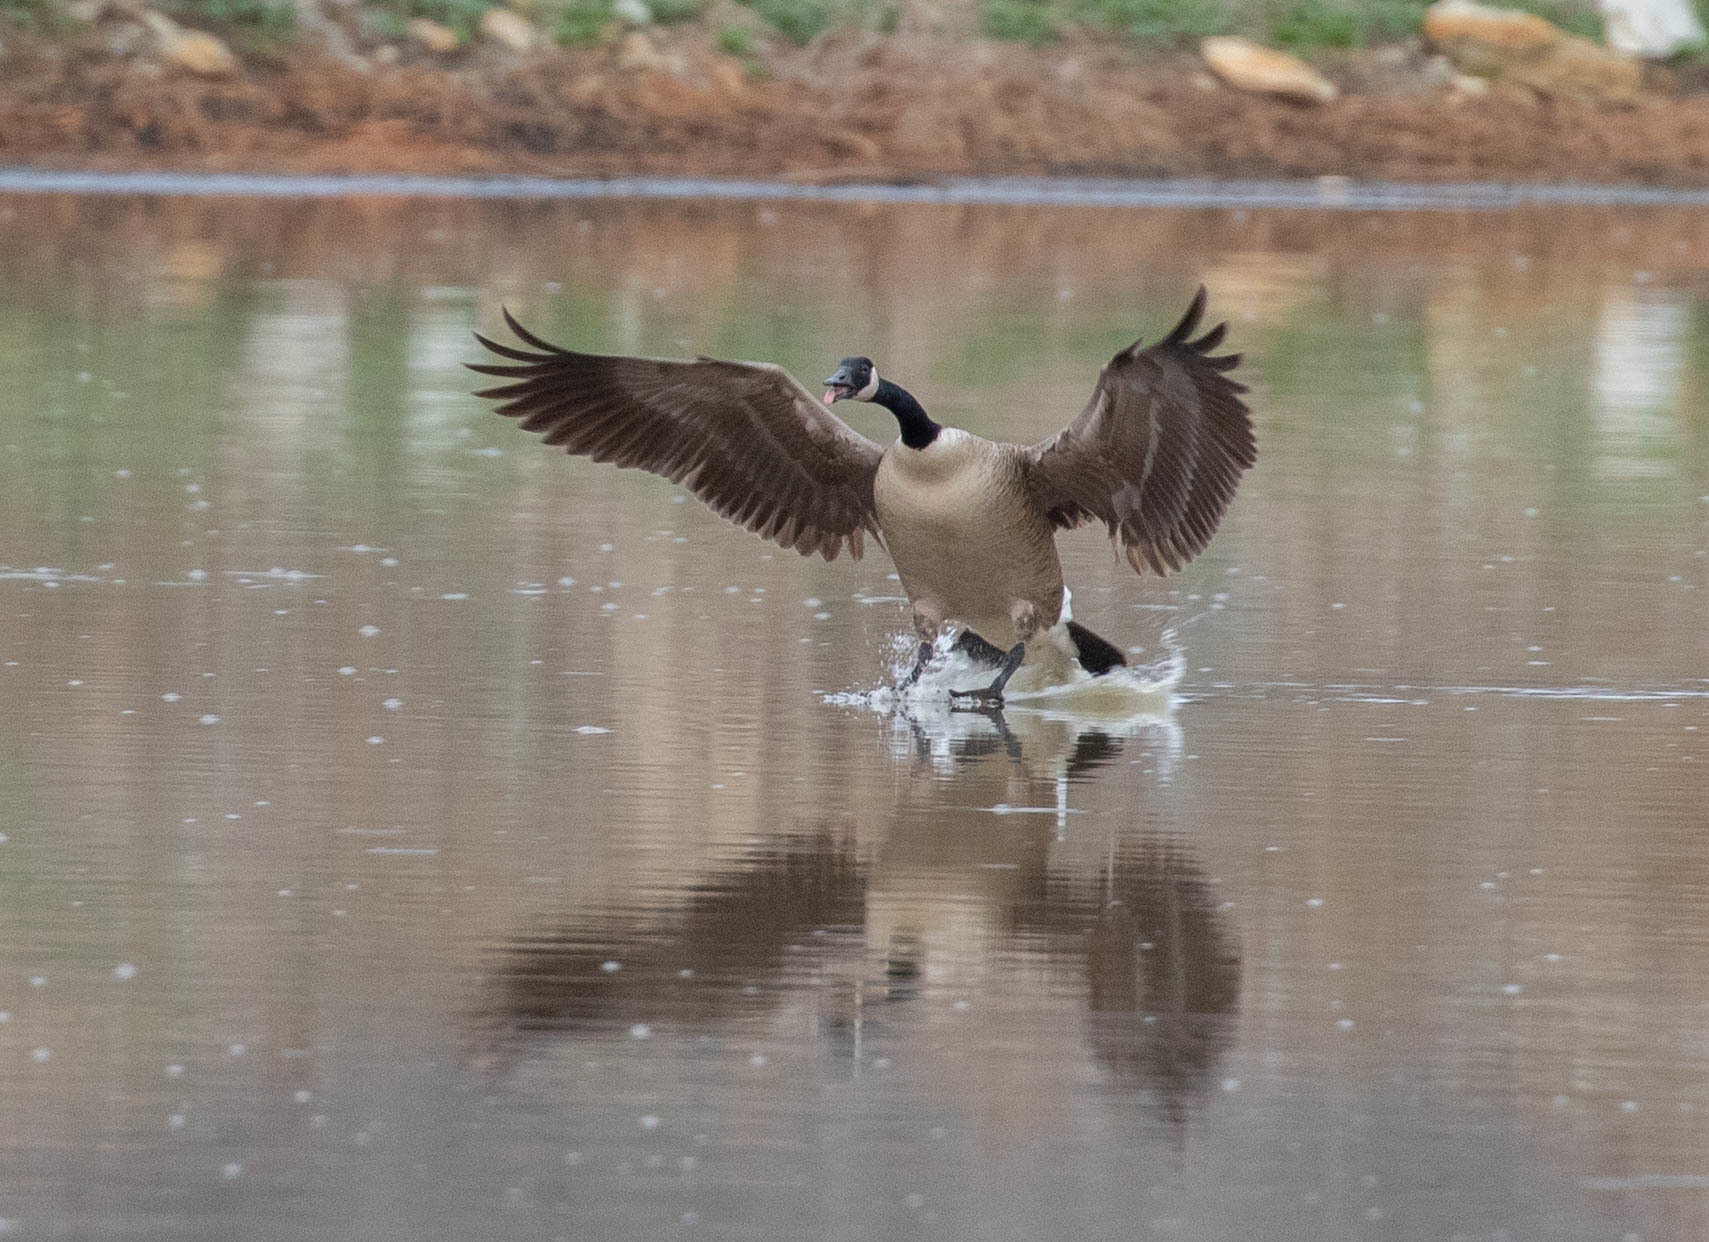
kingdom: Animalia
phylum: Chordata
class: Aves
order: Anseriformes
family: Anatidae
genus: Branta
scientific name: Branta canadensis
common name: Canada goose
